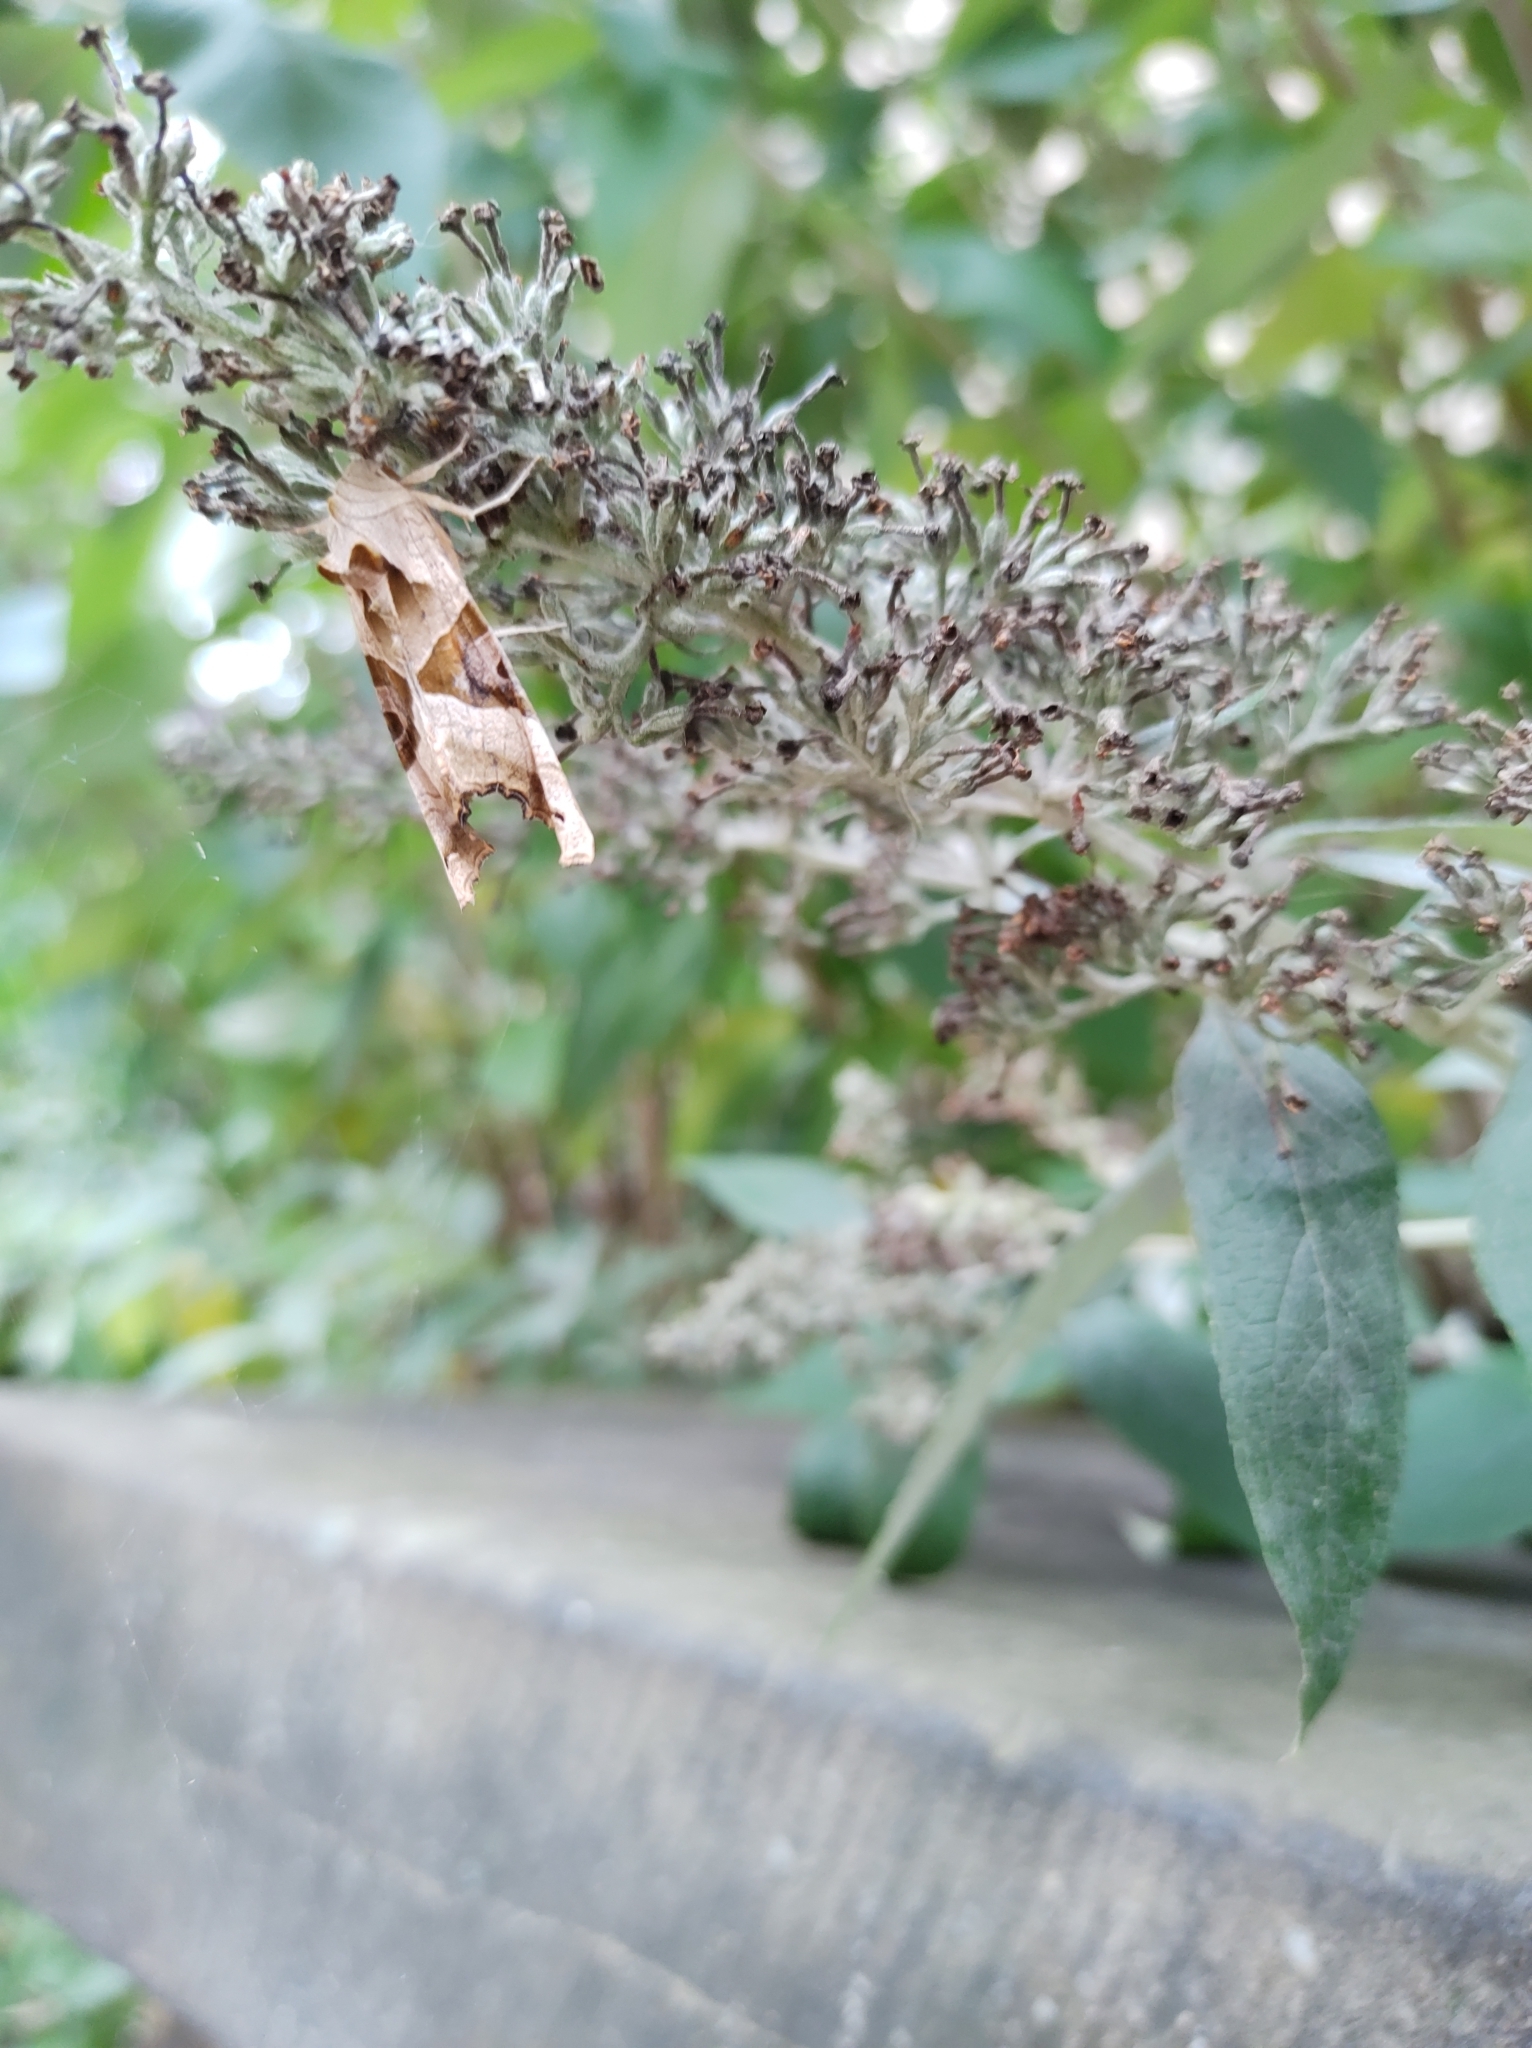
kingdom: Animalia
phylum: Arthropoda
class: Insecta
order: Lepidoptera
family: Noctuidae
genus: Phlogophora
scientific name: Phlogophora meticulosa
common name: Angle shades
